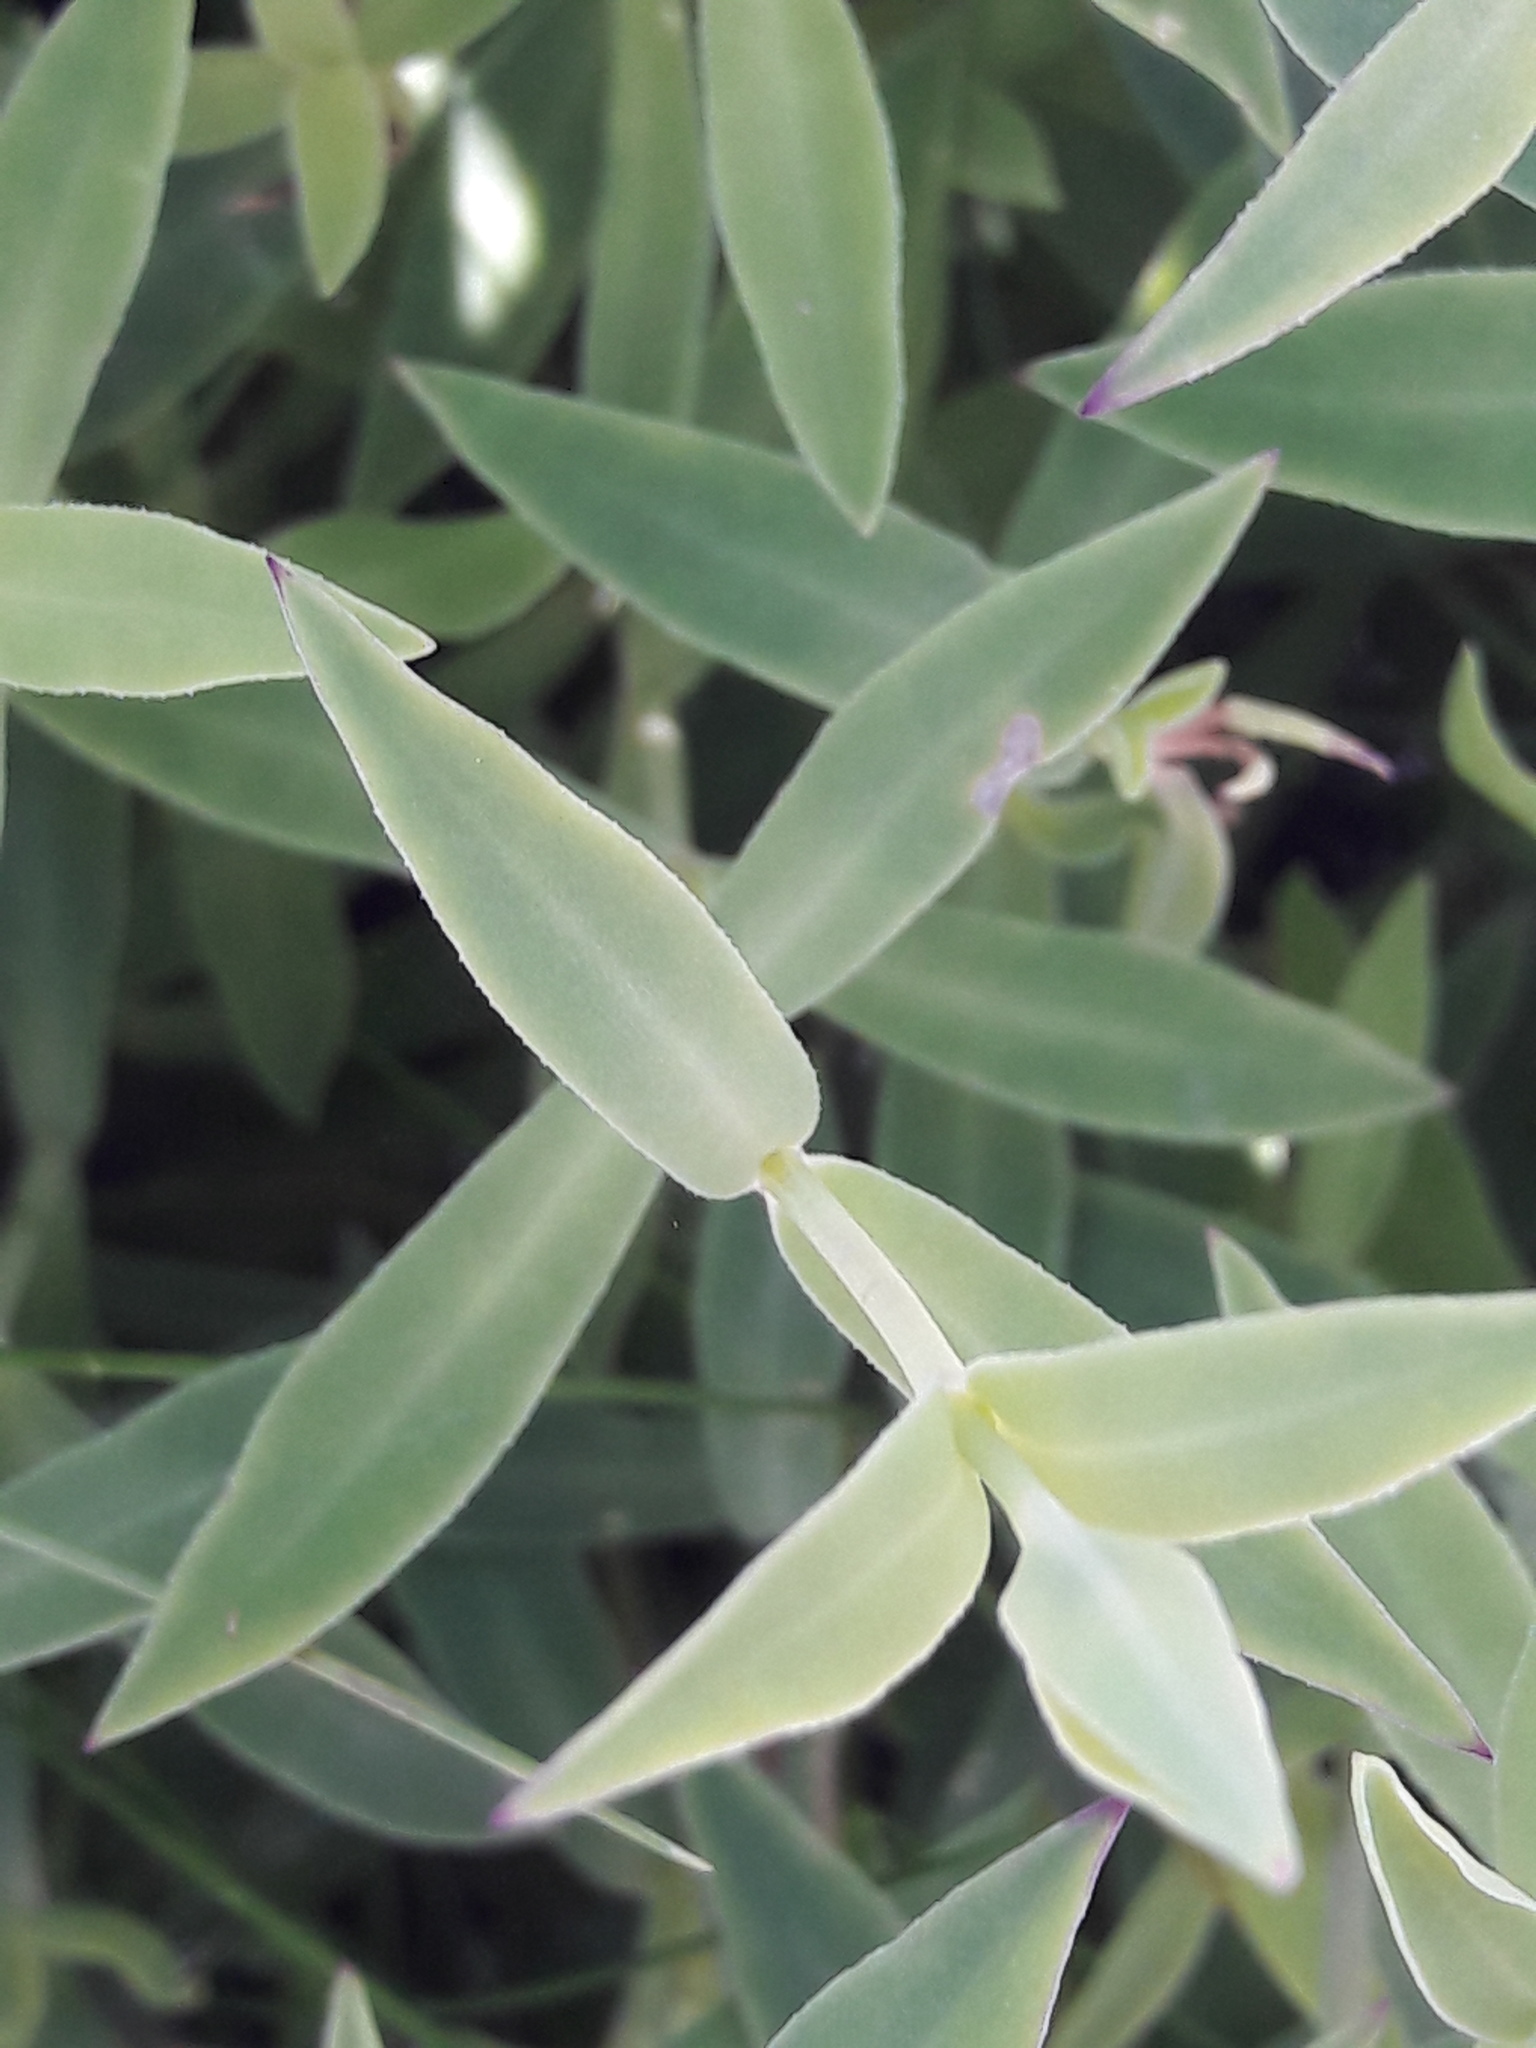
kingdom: Plantae
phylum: Tracheophyta
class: Magnoliopsida
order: Caryophyllales
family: Caryophyllaceae
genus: Silene
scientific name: Silene uniflora
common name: Sea campion
